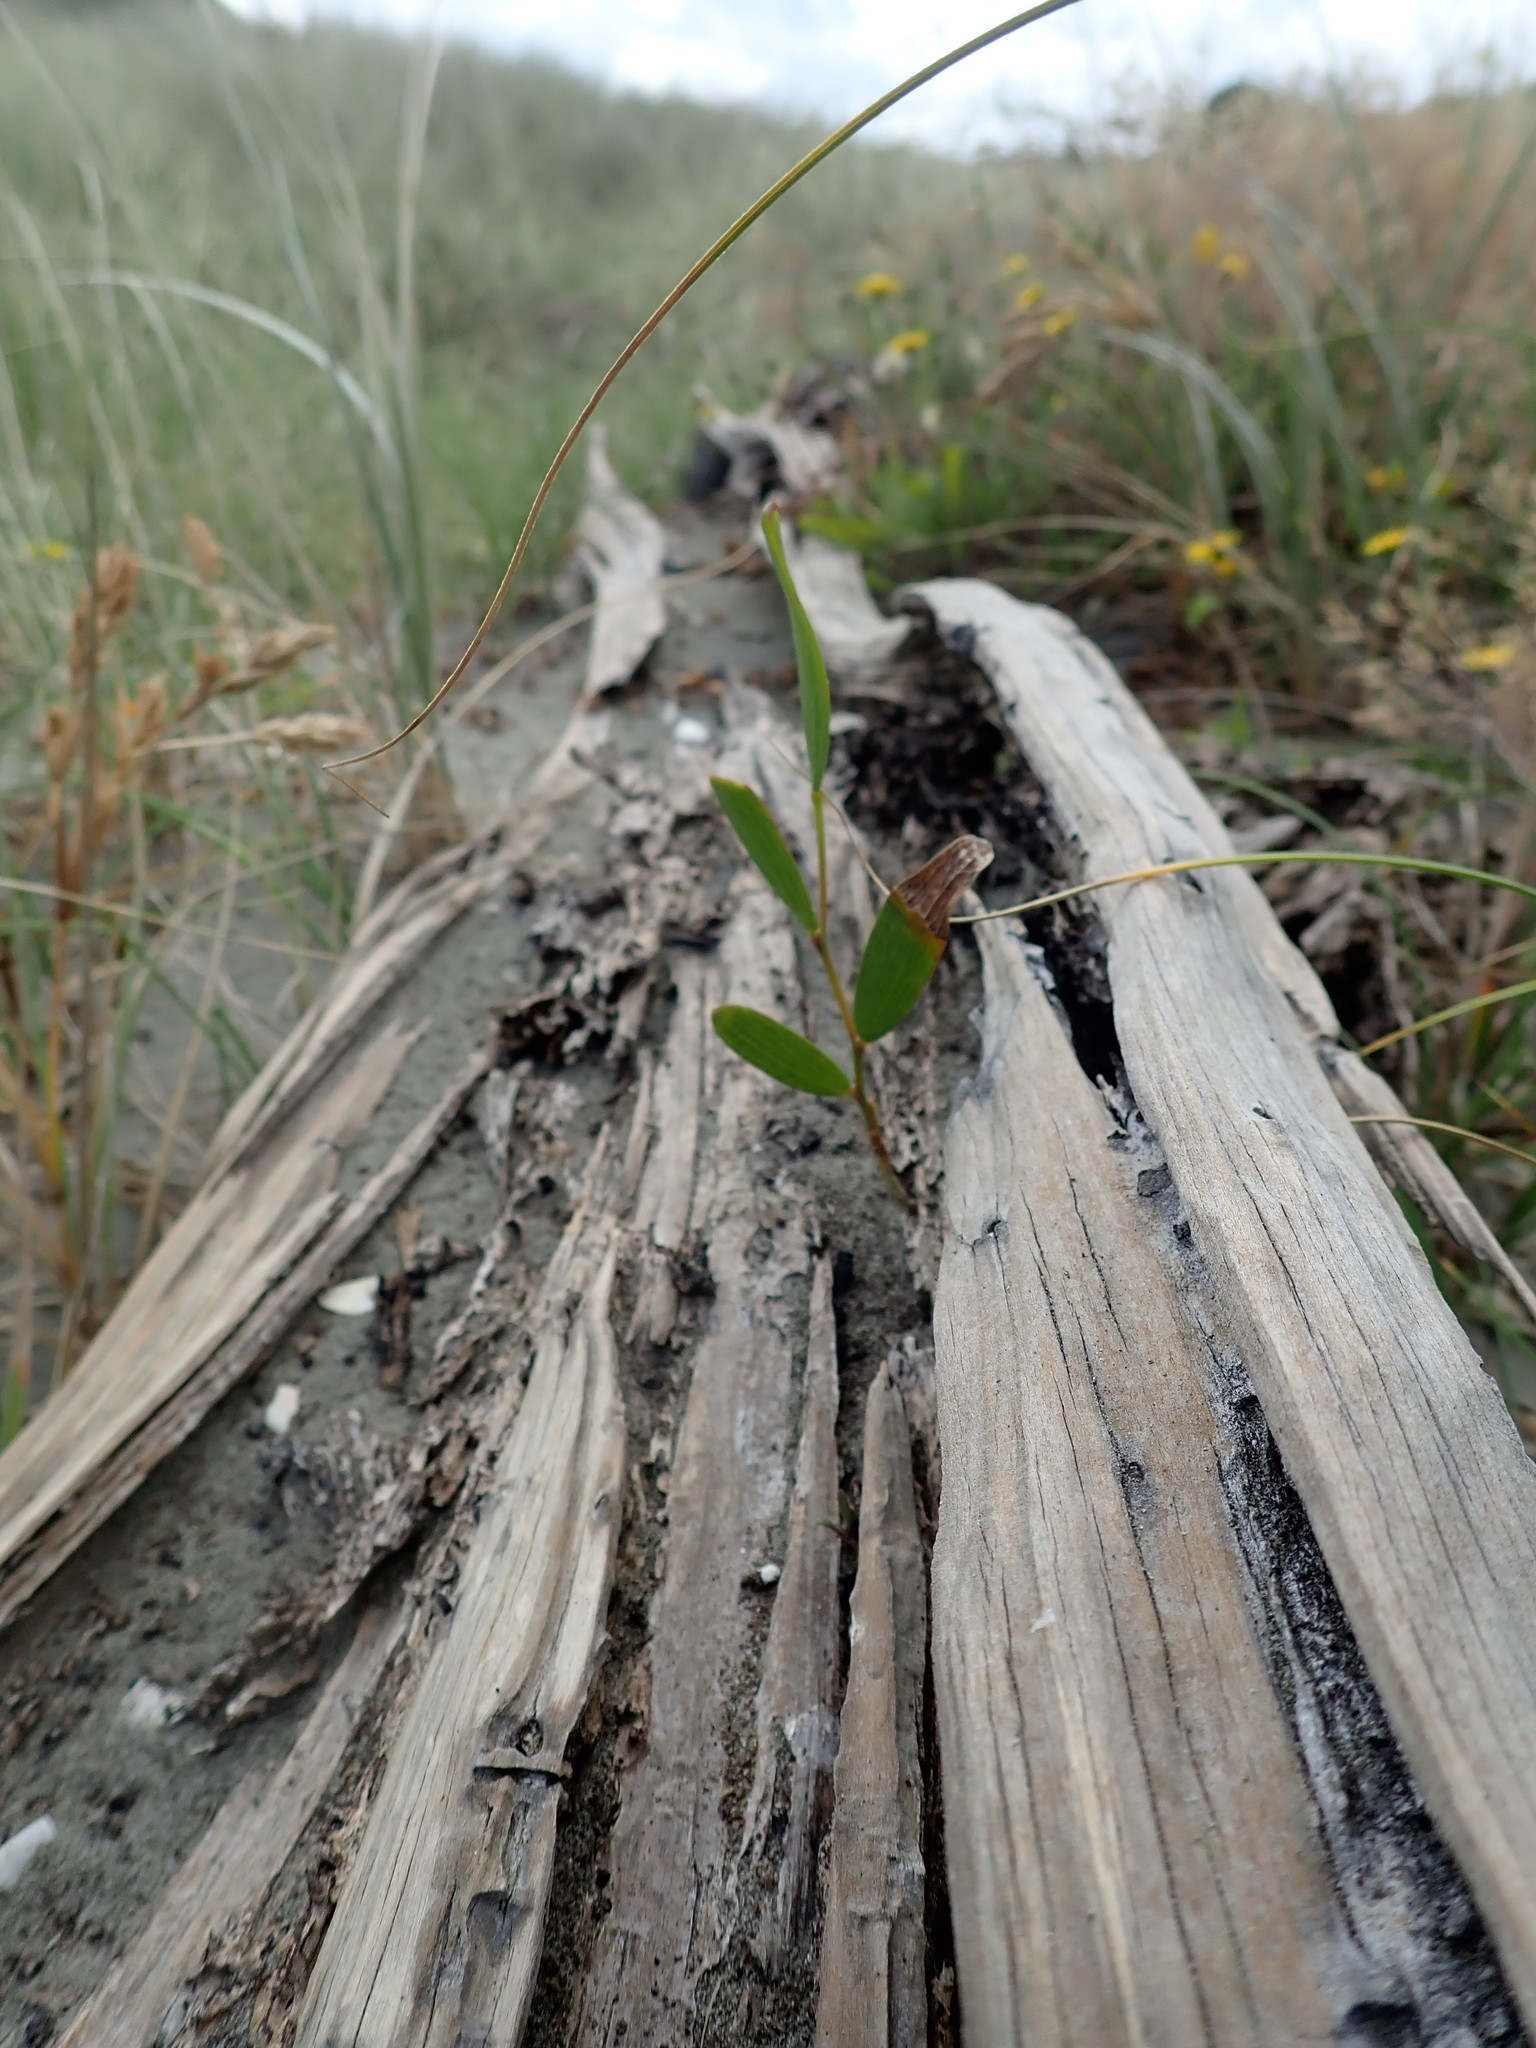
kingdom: Plantae
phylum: Tracheophyta
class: Magnoliopsida
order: Fabales
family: Fabaceae
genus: Acacia
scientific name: Acacia longifolia
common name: Sydney golden wattle
